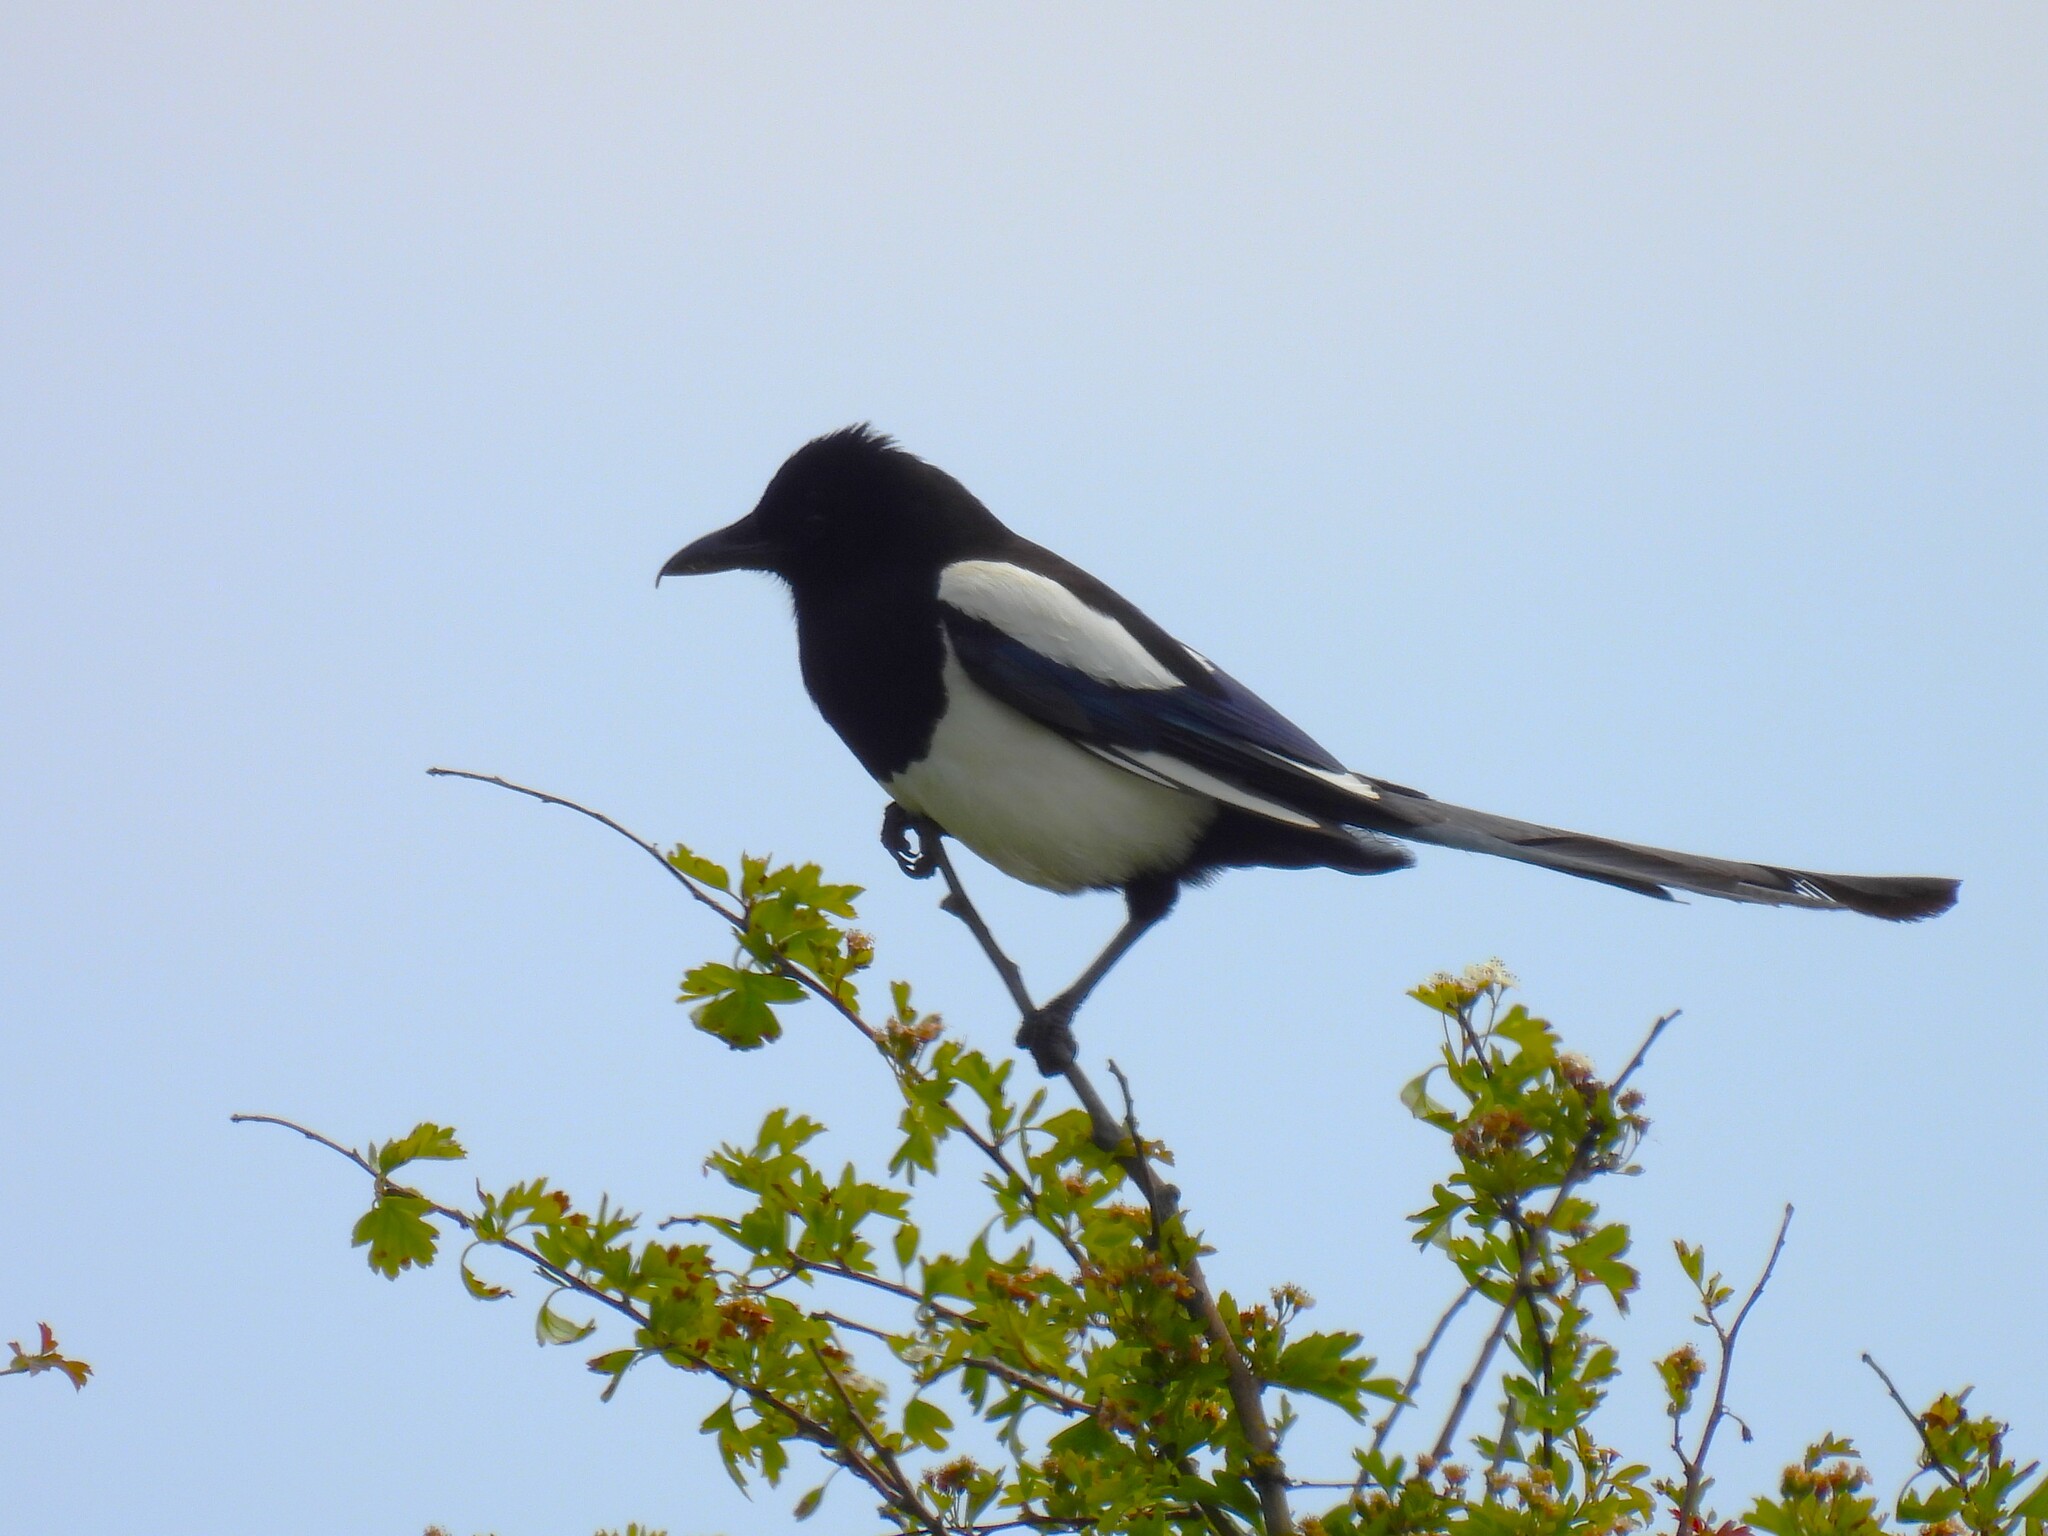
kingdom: Animalia
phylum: Chordata
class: Aves
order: Passeriformes
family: Corvidae
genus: Pica
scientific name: Pica pica
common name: Eurasian magpie
